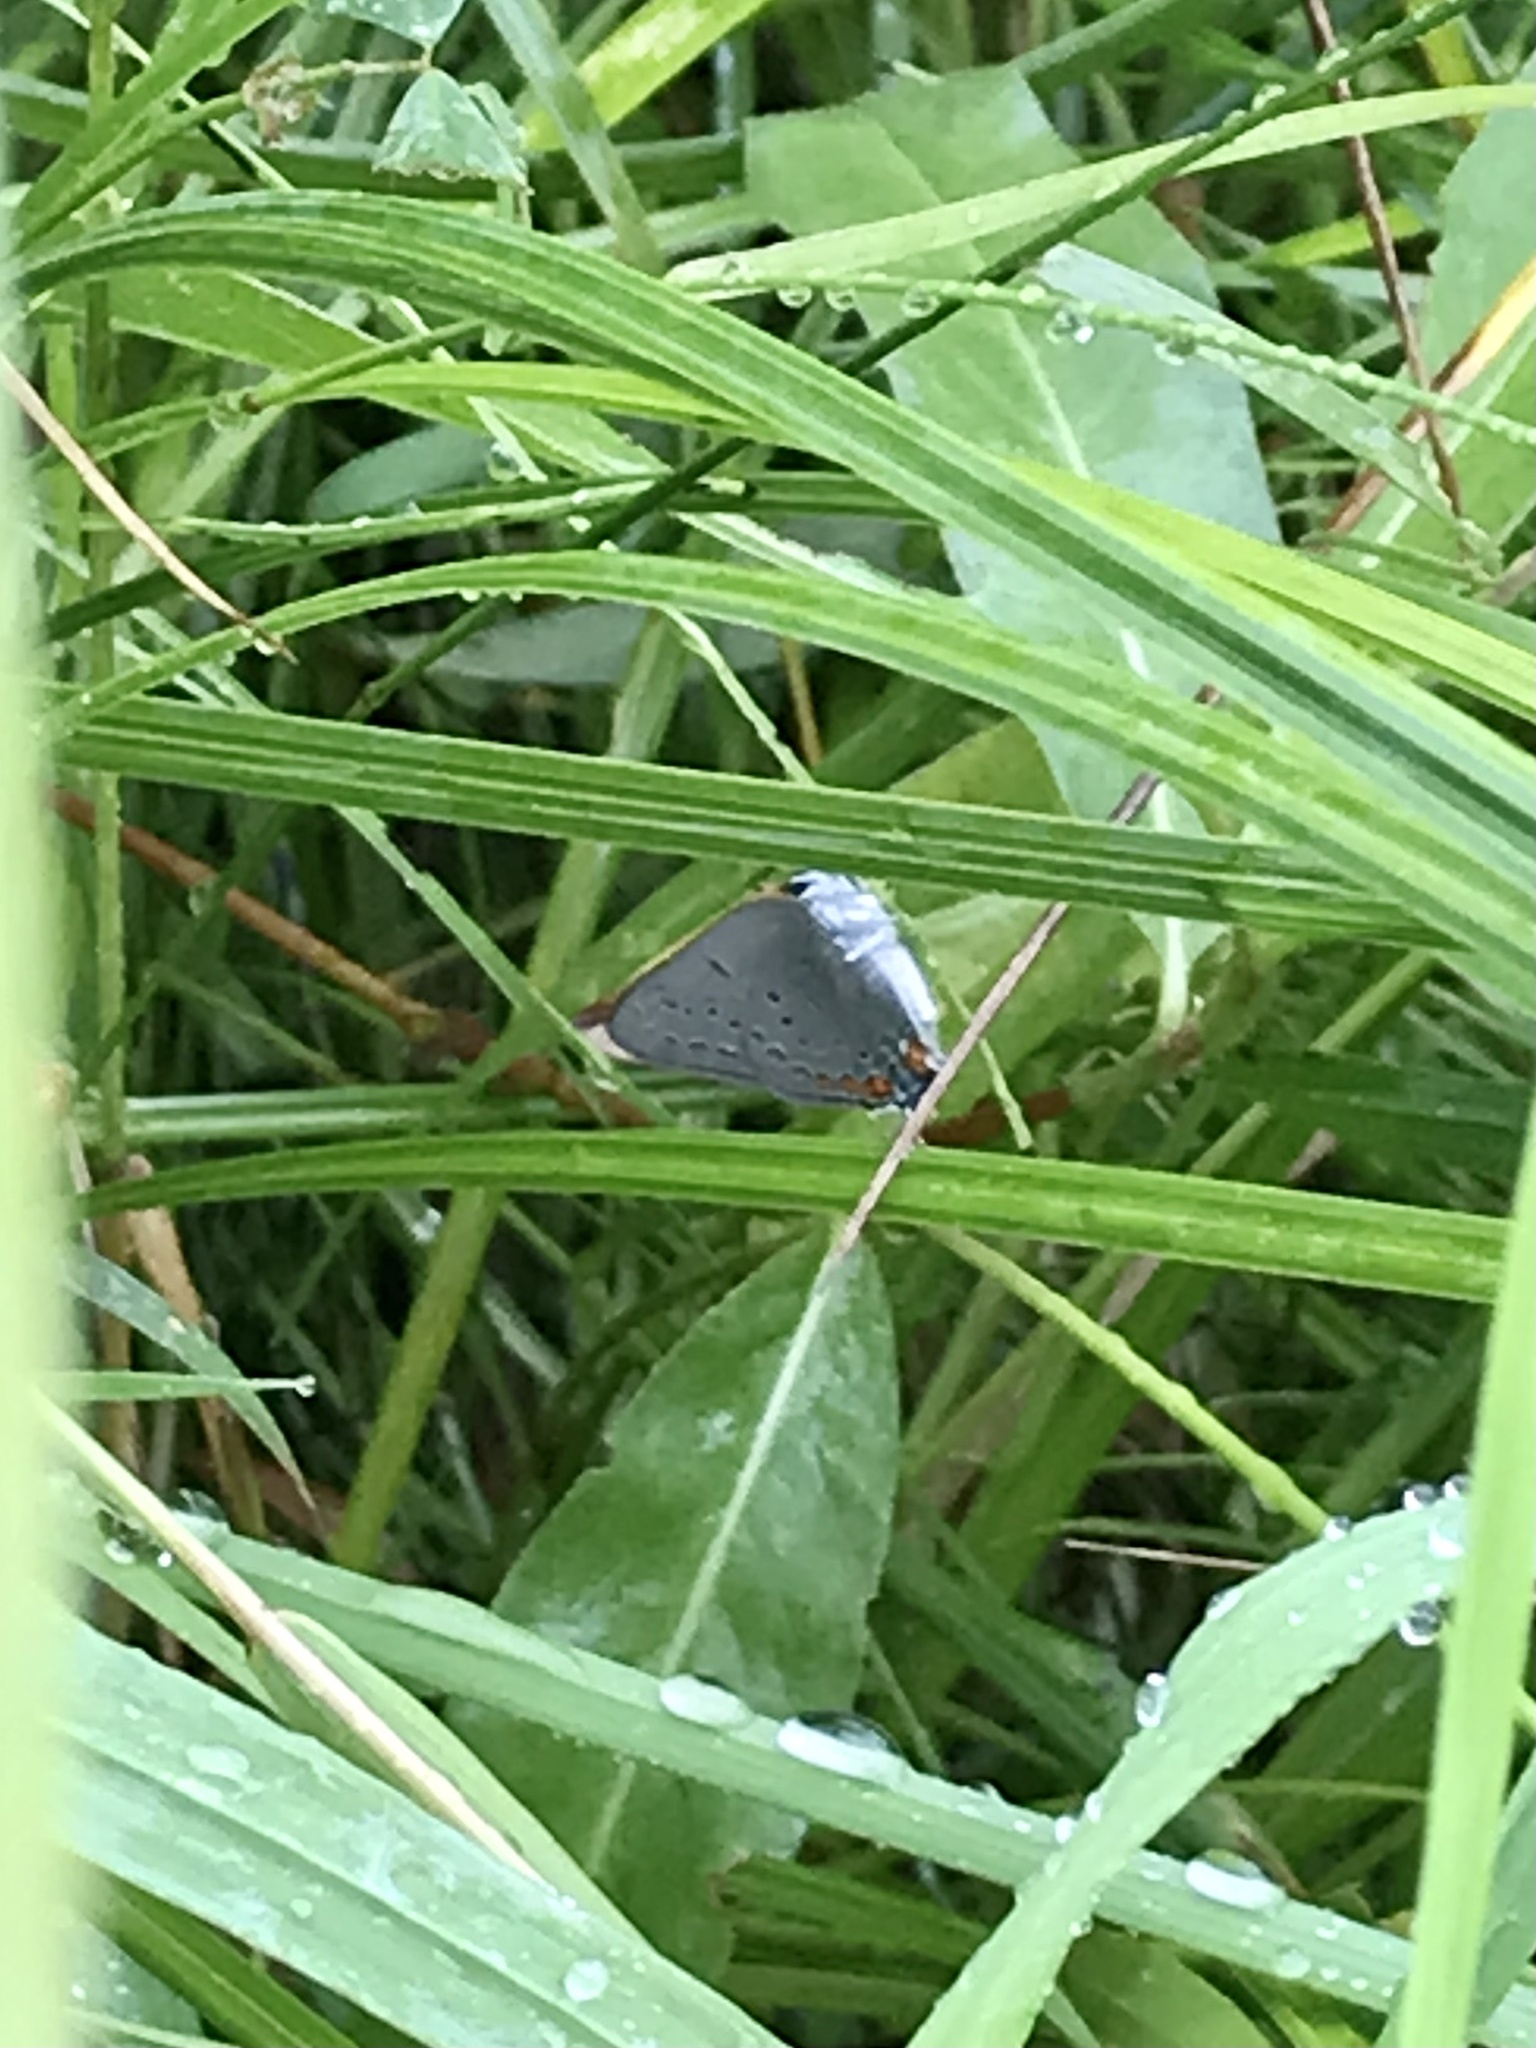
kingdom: Animalia
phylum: Arthropoda
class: Insecta
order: Lepidoptera
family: Lycaenidae
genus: Strymon
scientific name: Strymon acadica
